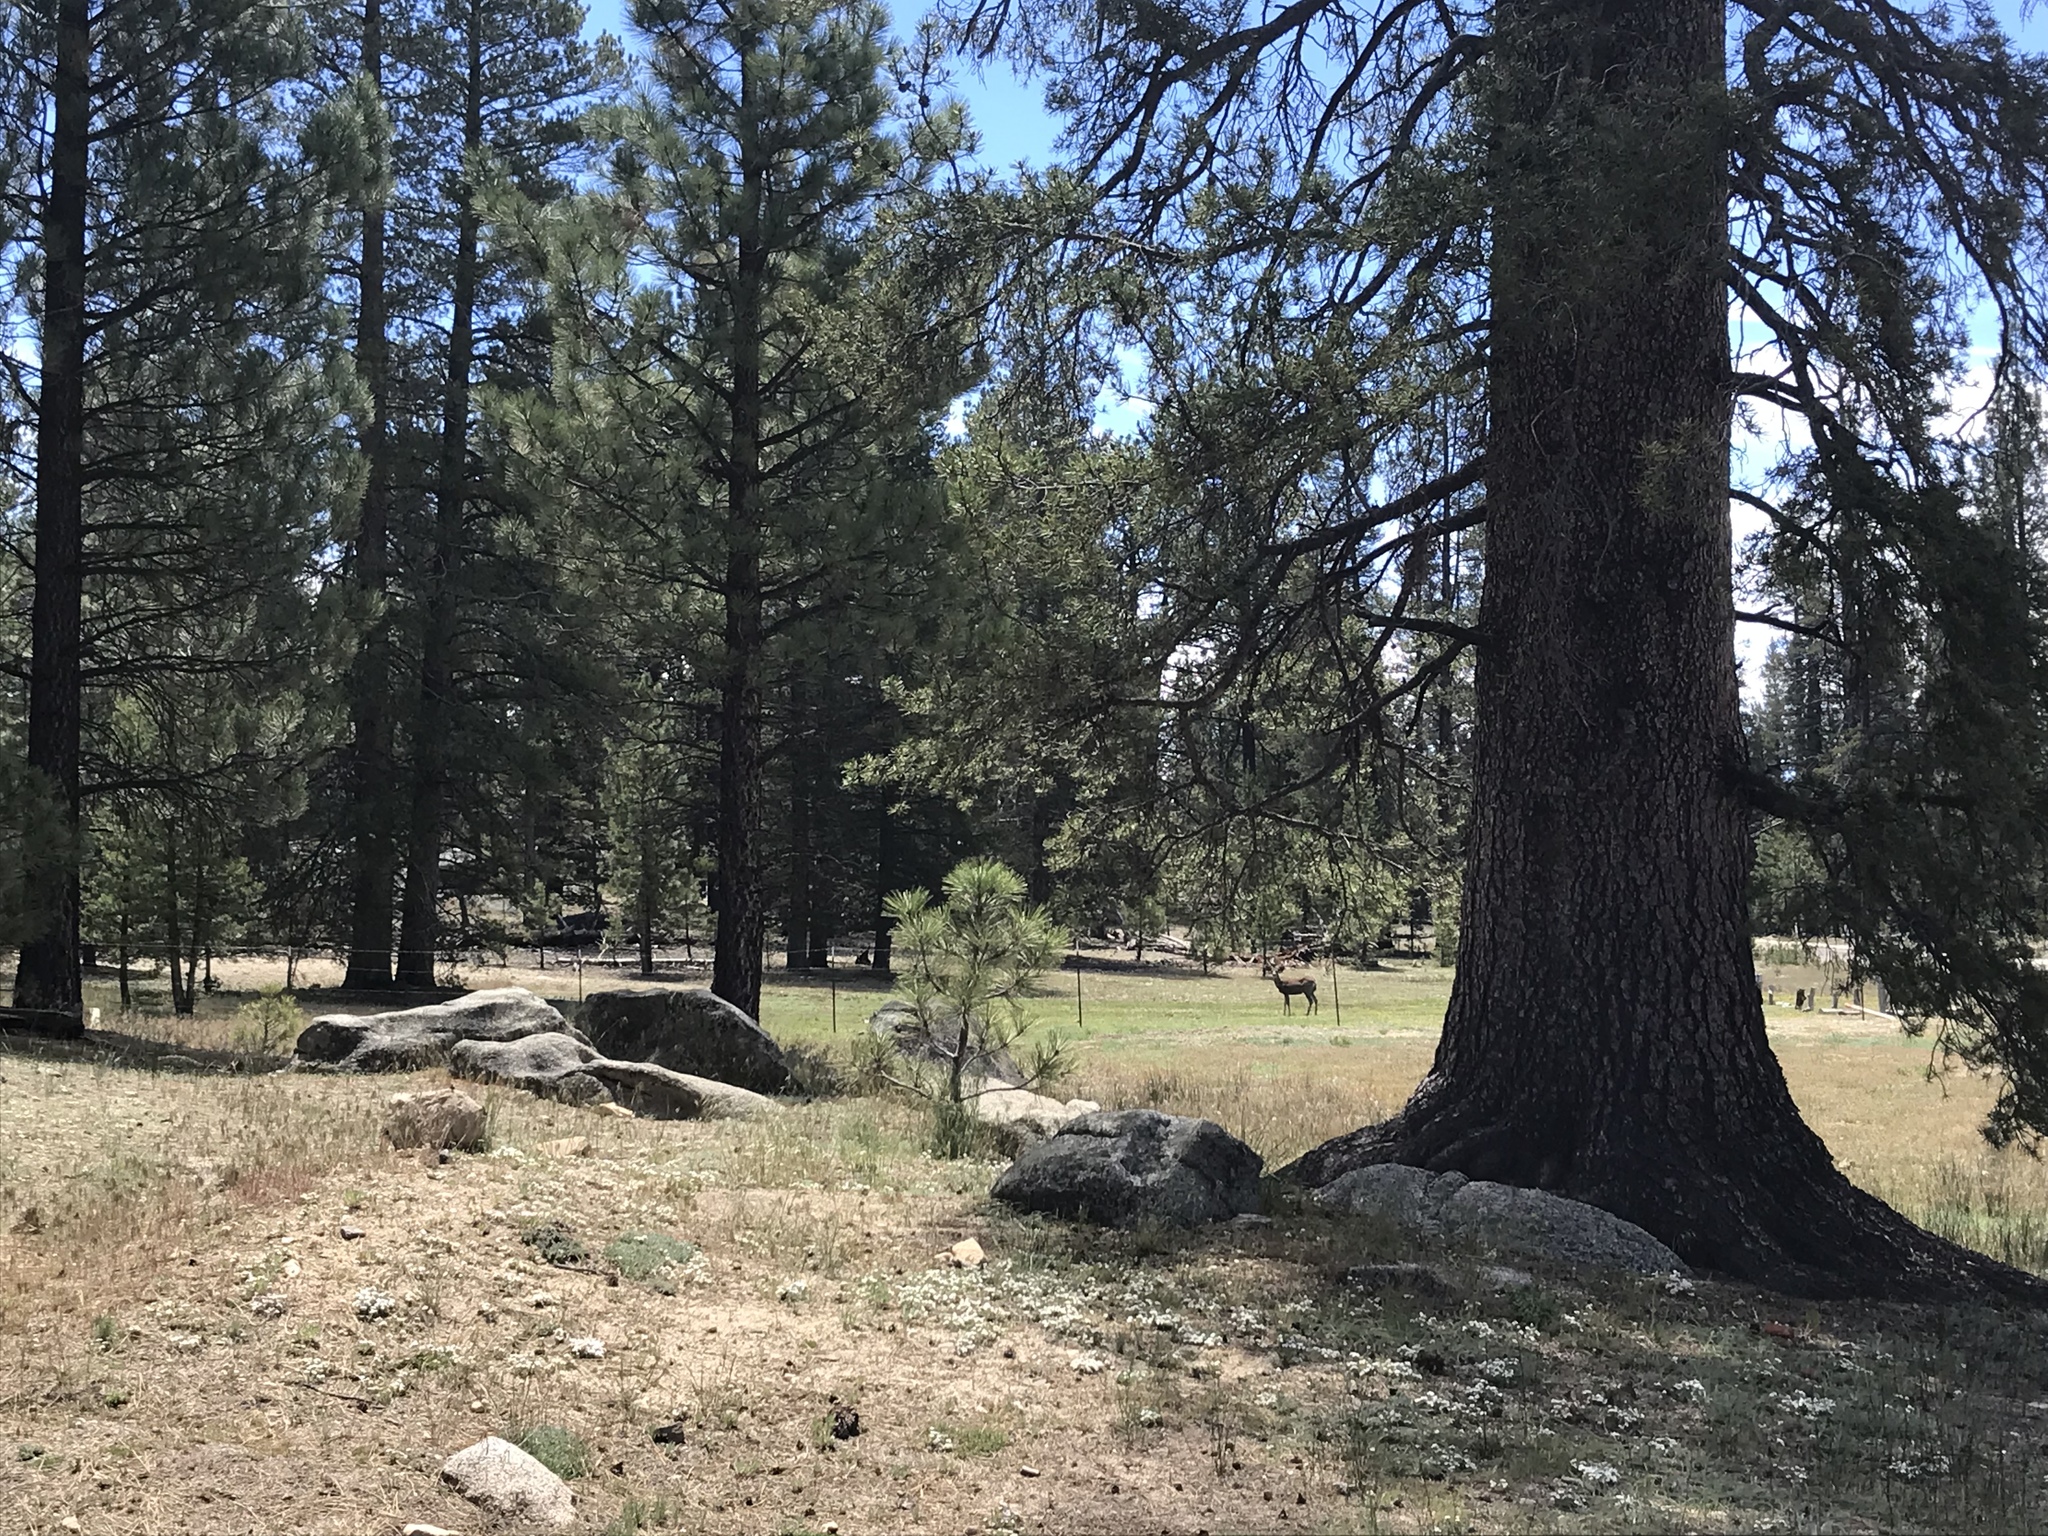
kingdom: Animalia
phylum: Chordata
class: Mammalia
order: Artiodactyla
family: Cervidae
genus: Odocoileus
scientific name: Odocoileus hemionus
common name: Mule deer
